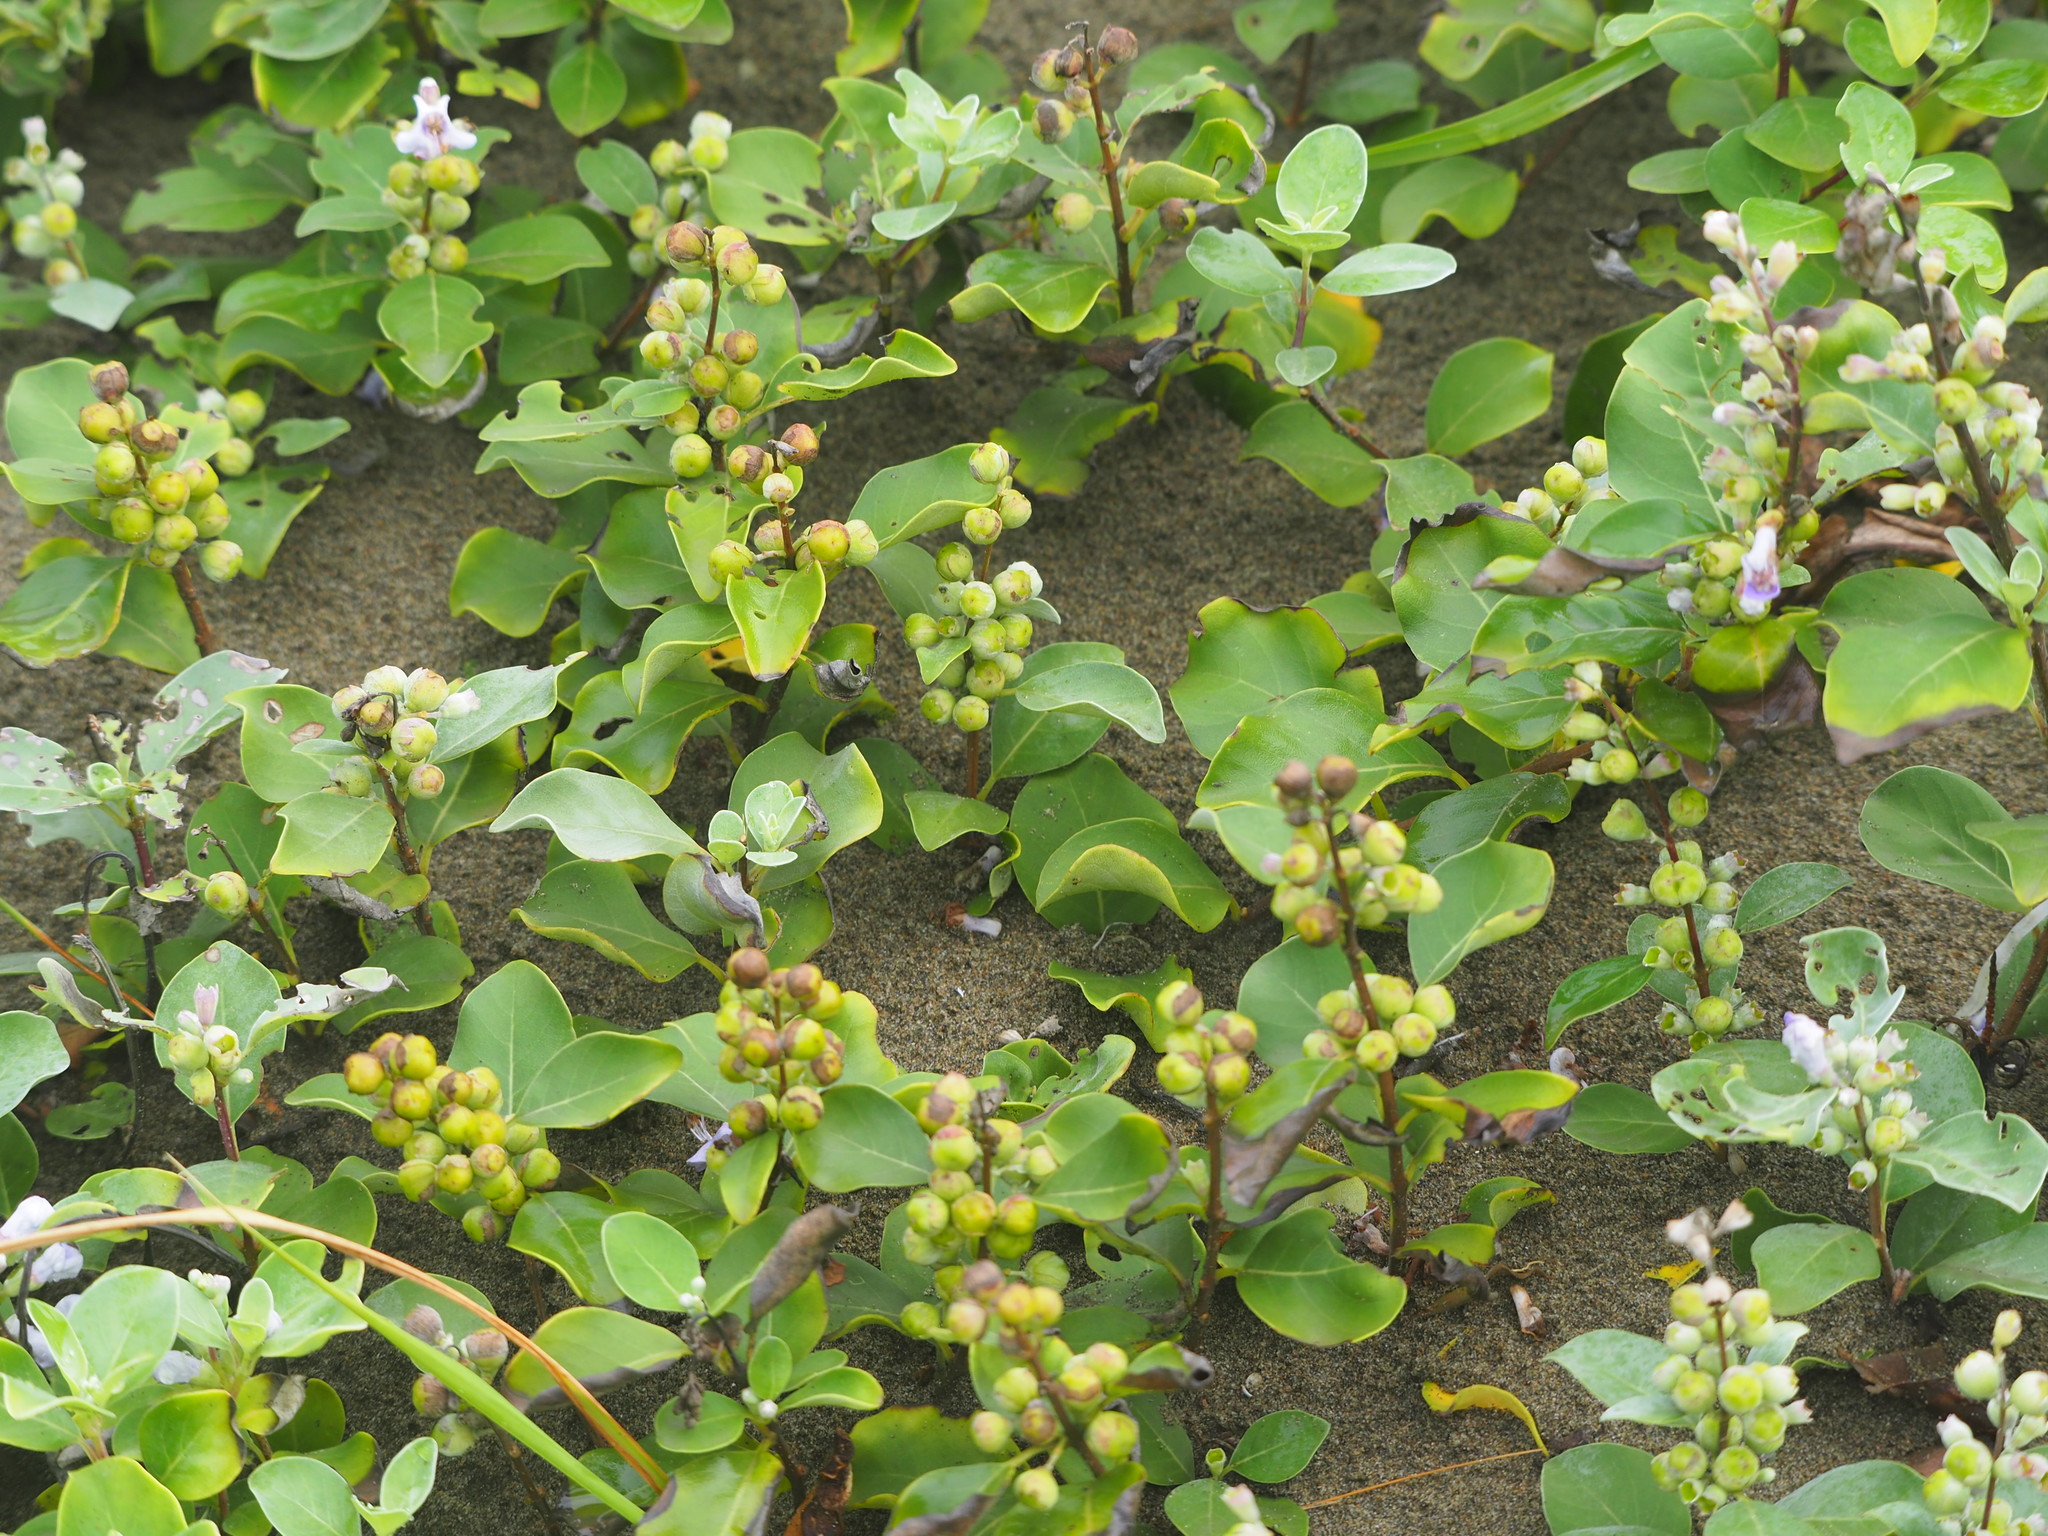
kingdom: Plantae
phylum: Tracheophyta
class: Magnoliopsida
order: Lamiales
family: Lamiaceae
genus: Vitex
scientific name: Vitex rotundifolia
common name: Beach vitex
